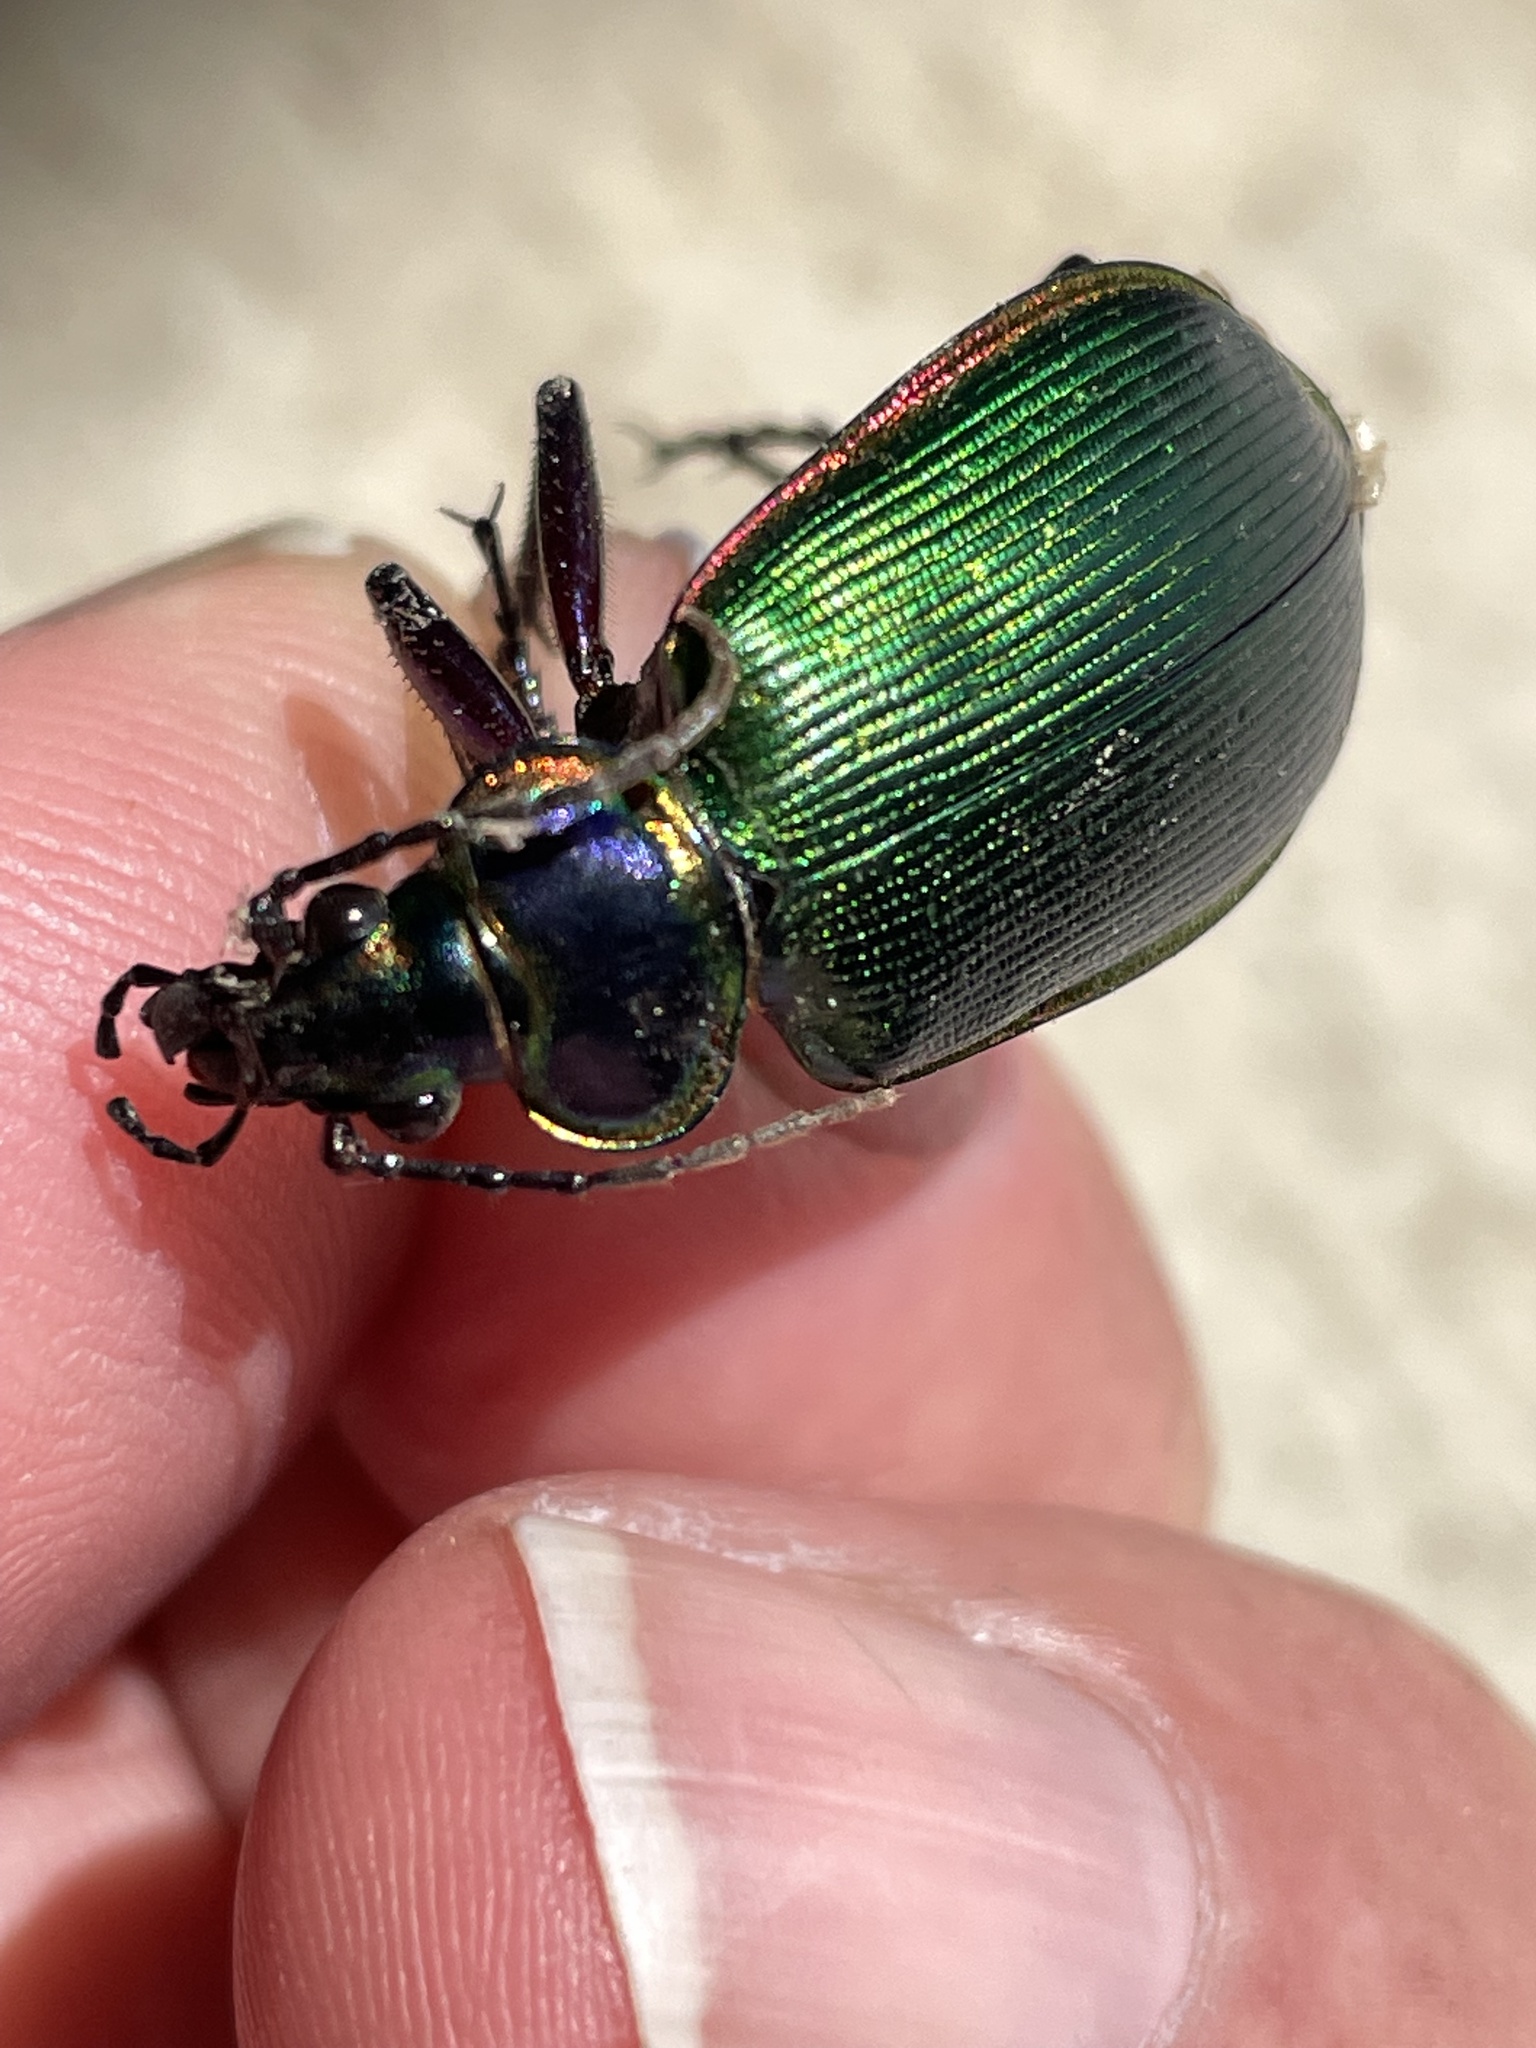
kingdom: Animalia
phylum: Arthropoda
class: Insecta
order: Coleoptera
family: Carabidae
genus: Calosoma
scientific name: Calosoma scrutator
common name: Fiery searcher beetle
